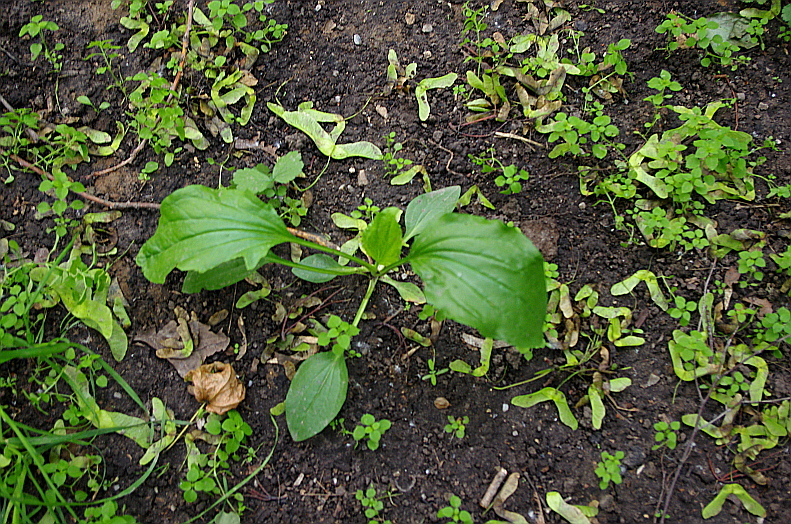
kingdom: Plantae
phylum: Tracheophyta
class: Magnoliopsida
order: Lamiales
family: Plantaginaceae
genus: Plantago
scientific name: Plantago major
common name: Common plantain
